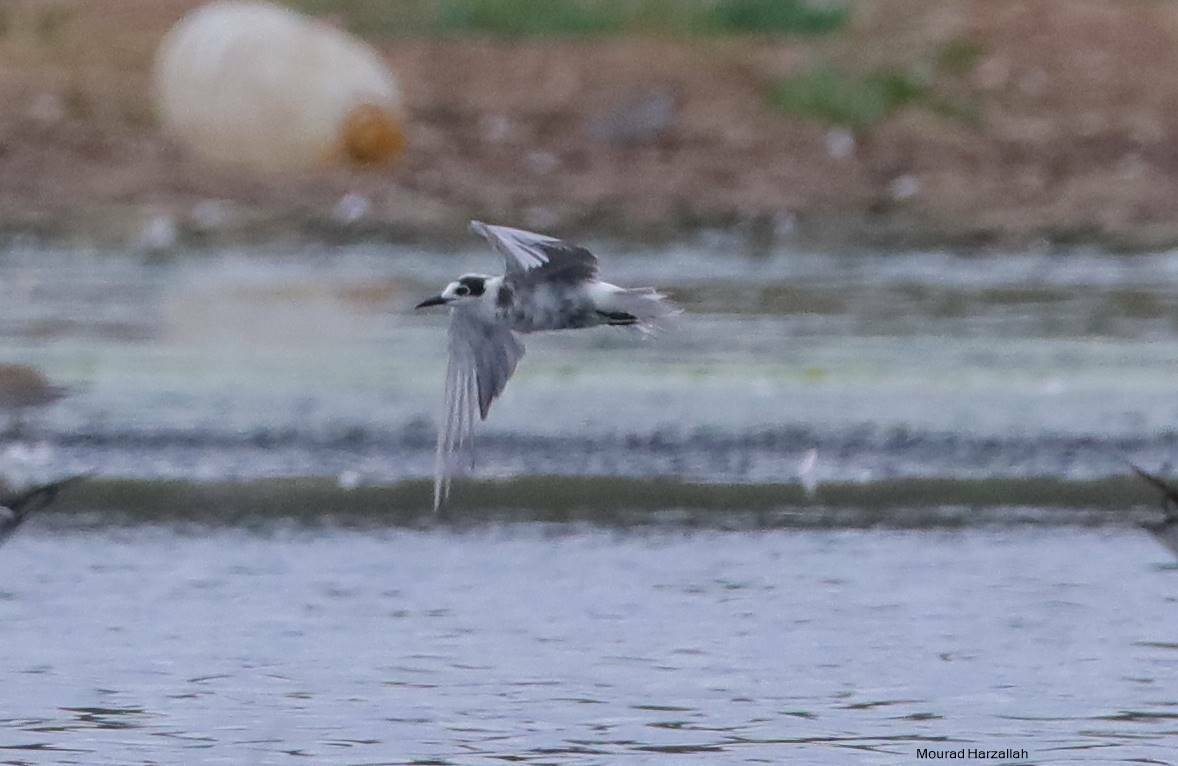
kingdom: Animalia
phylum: Chordata
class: Aves
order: Charadriiformes
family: Laridae
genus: Chlidonias
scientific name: Chlidonias niger
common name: Black tern
